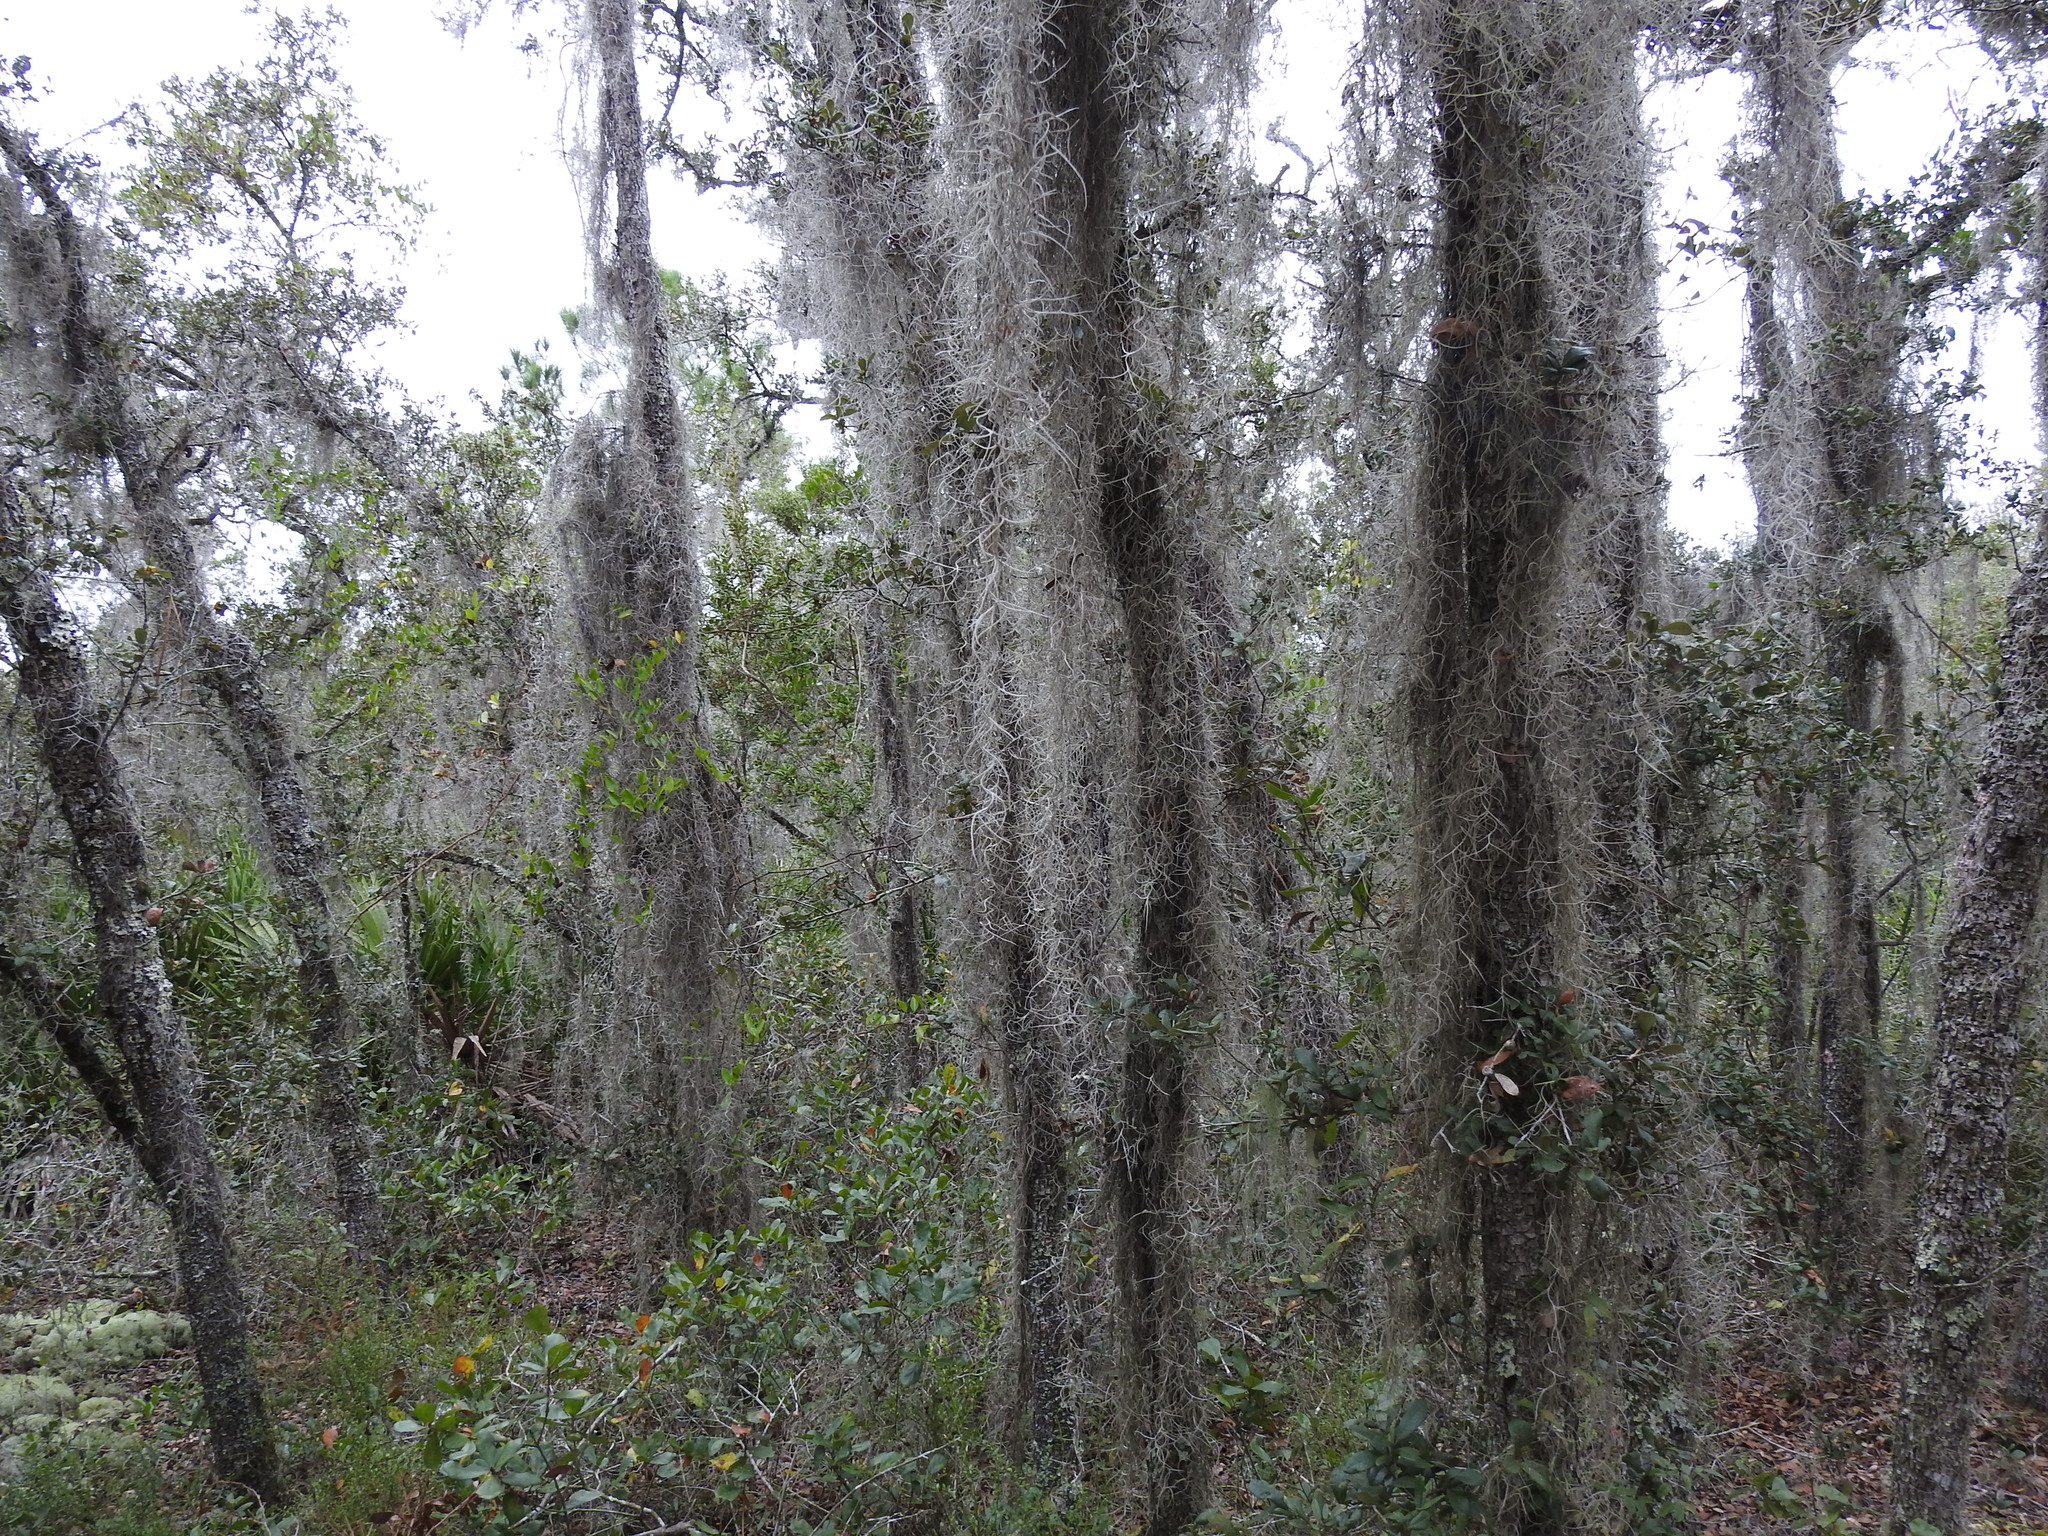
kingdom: Plantae
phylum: Tracheophyta
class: Liliopsida
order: Poales
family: Bromeliaceae
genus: Tillandsia
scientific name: Tillandsia usneoides
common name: Spanish moss
